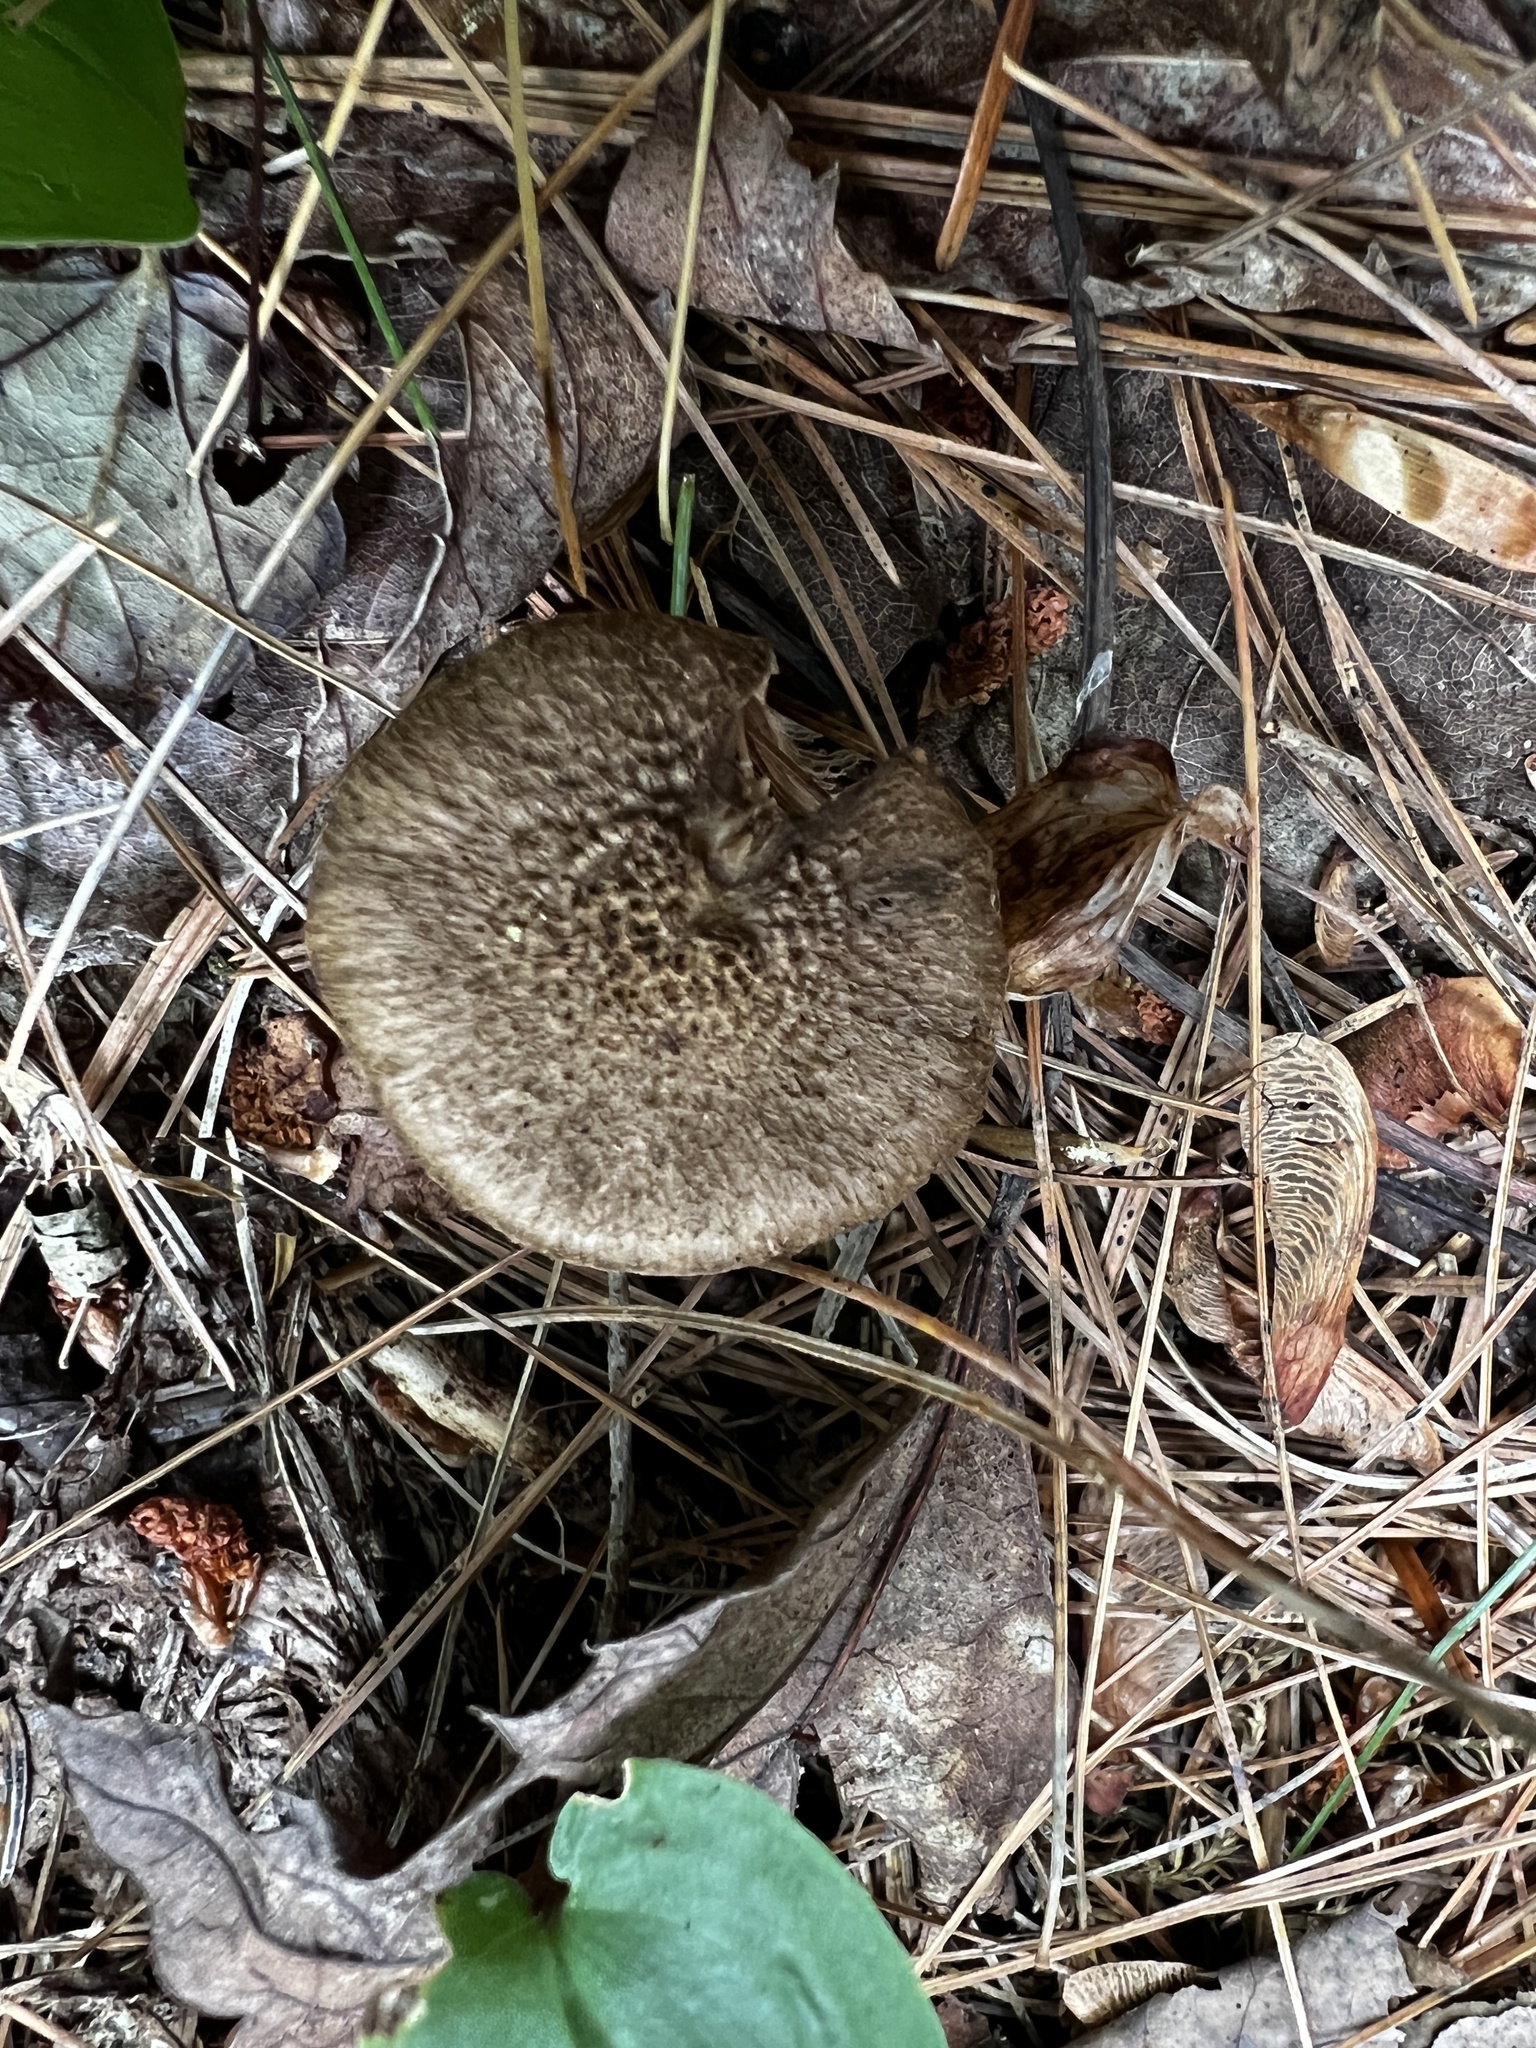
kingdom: Fungi
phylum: Basidiomycota
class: Agaricomycetes
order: Agaricales
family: Inocybaceae
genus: Inocybe
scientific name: Inocybe
